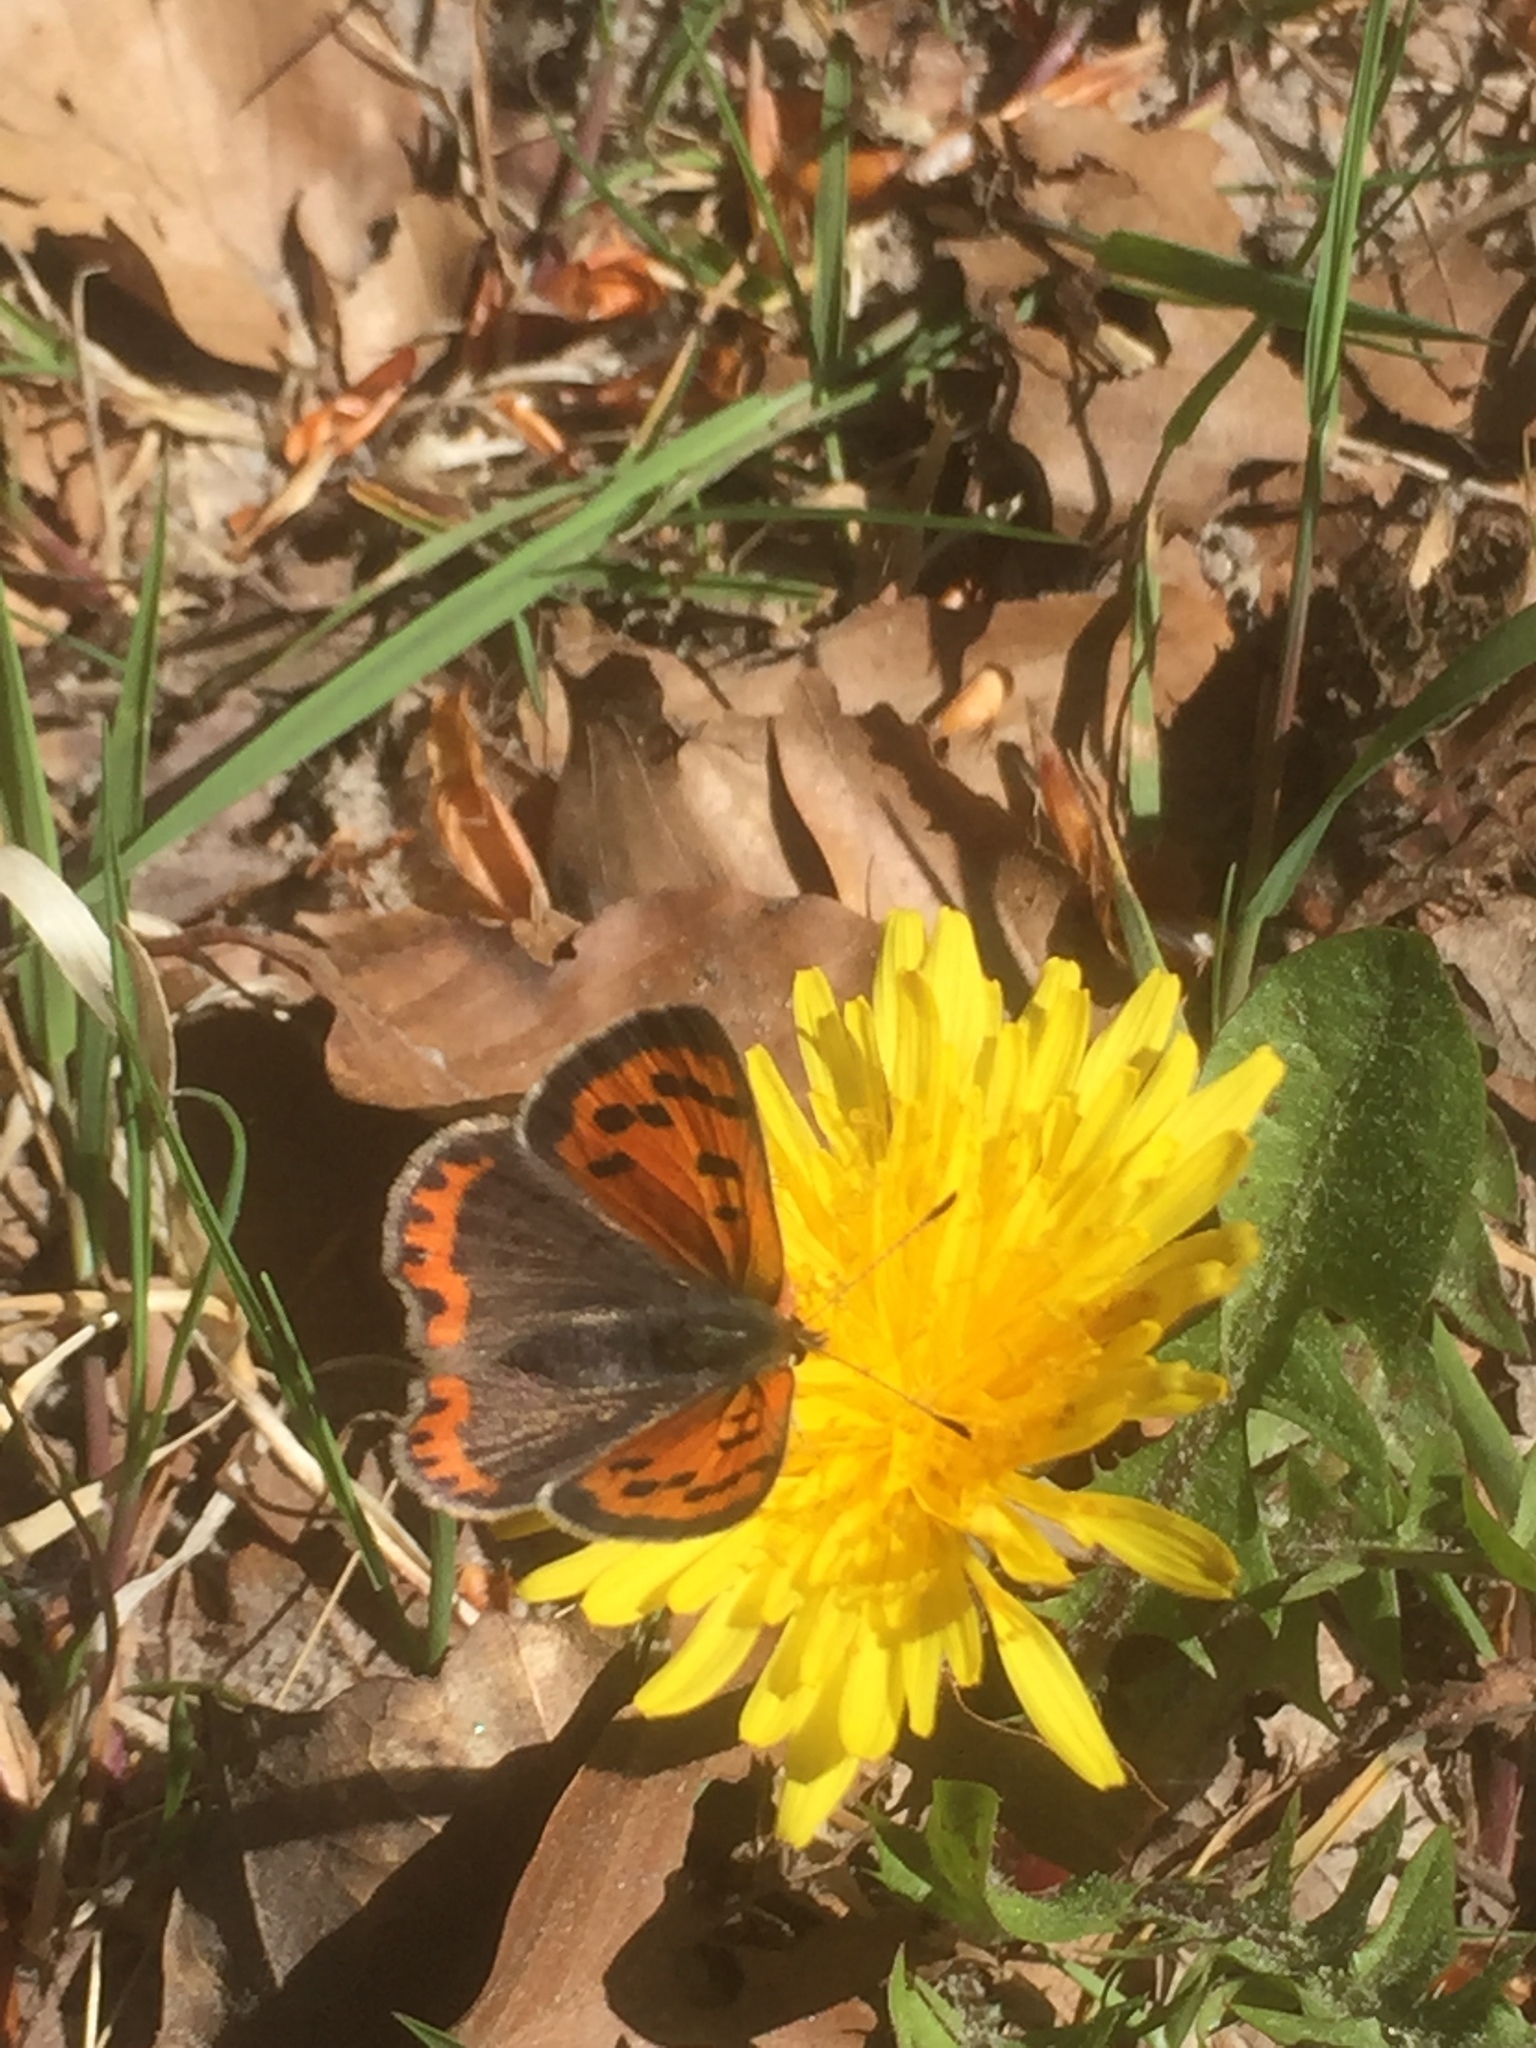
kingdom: Animalia
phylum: Arthropoda
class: Insecta
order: Lepidoptera
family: Lycaenidae
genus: Lycaena
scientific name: Lycaena phlaeas
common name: Small copper
